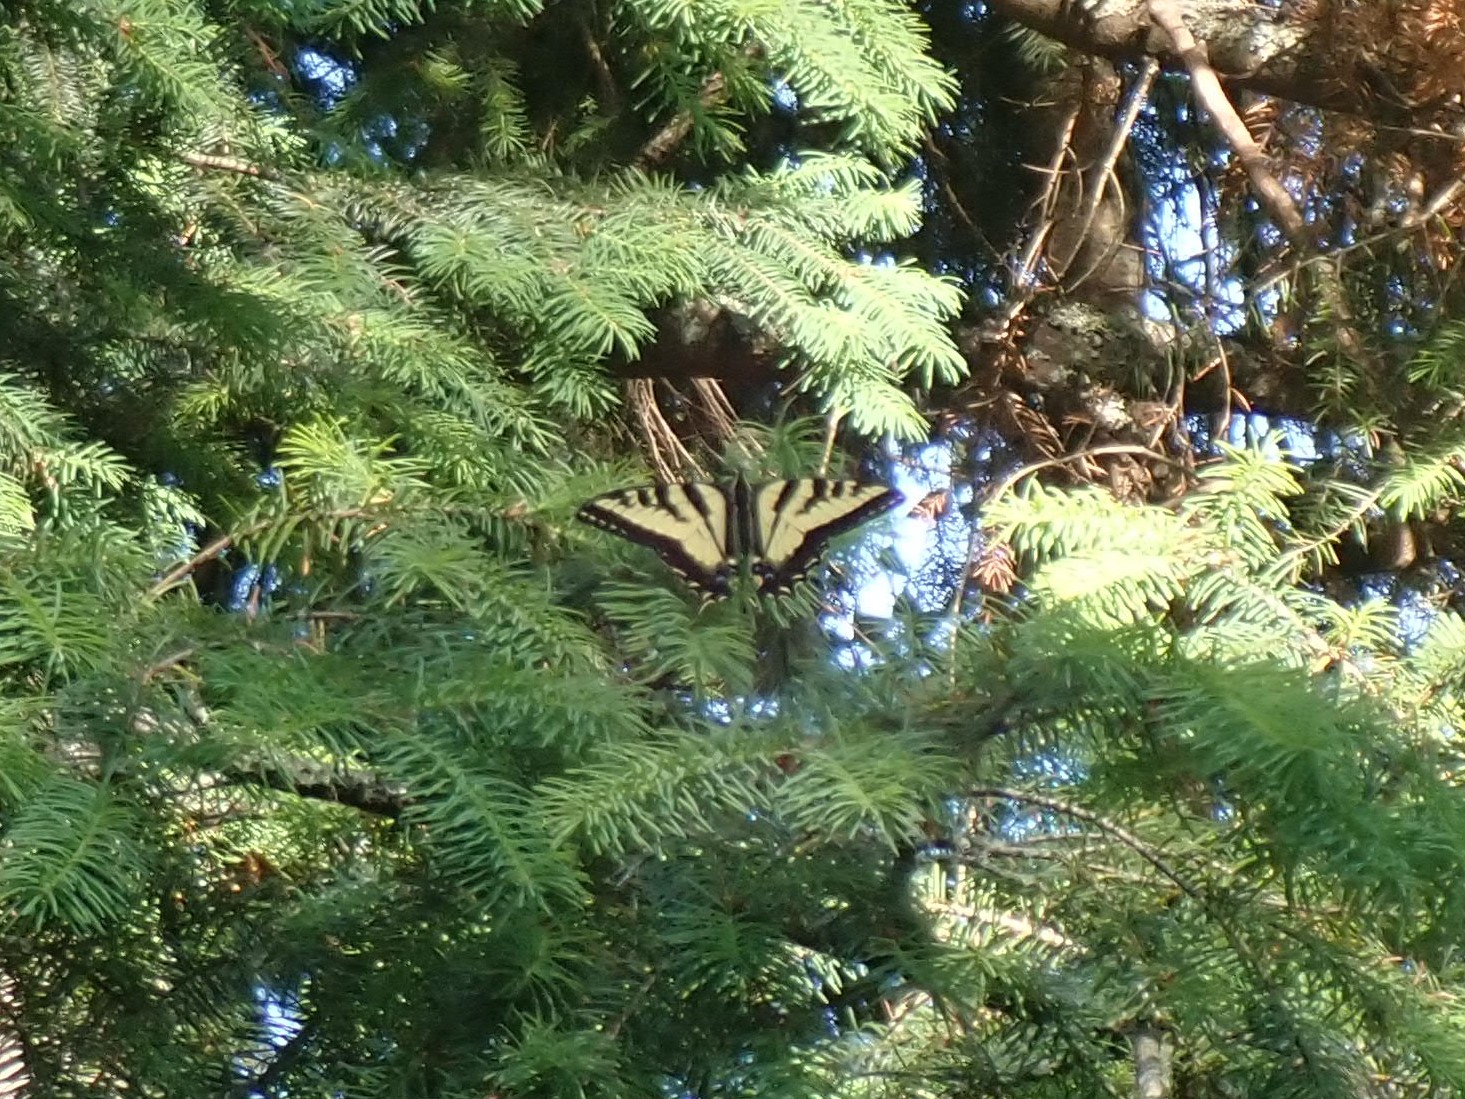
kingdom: Animalia
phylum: Arthropoda
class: Insecta
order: Lepidoptera
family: Papilionidae
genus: Papilio
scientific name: Papilio rutulus
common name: Western tiger swallowtail
